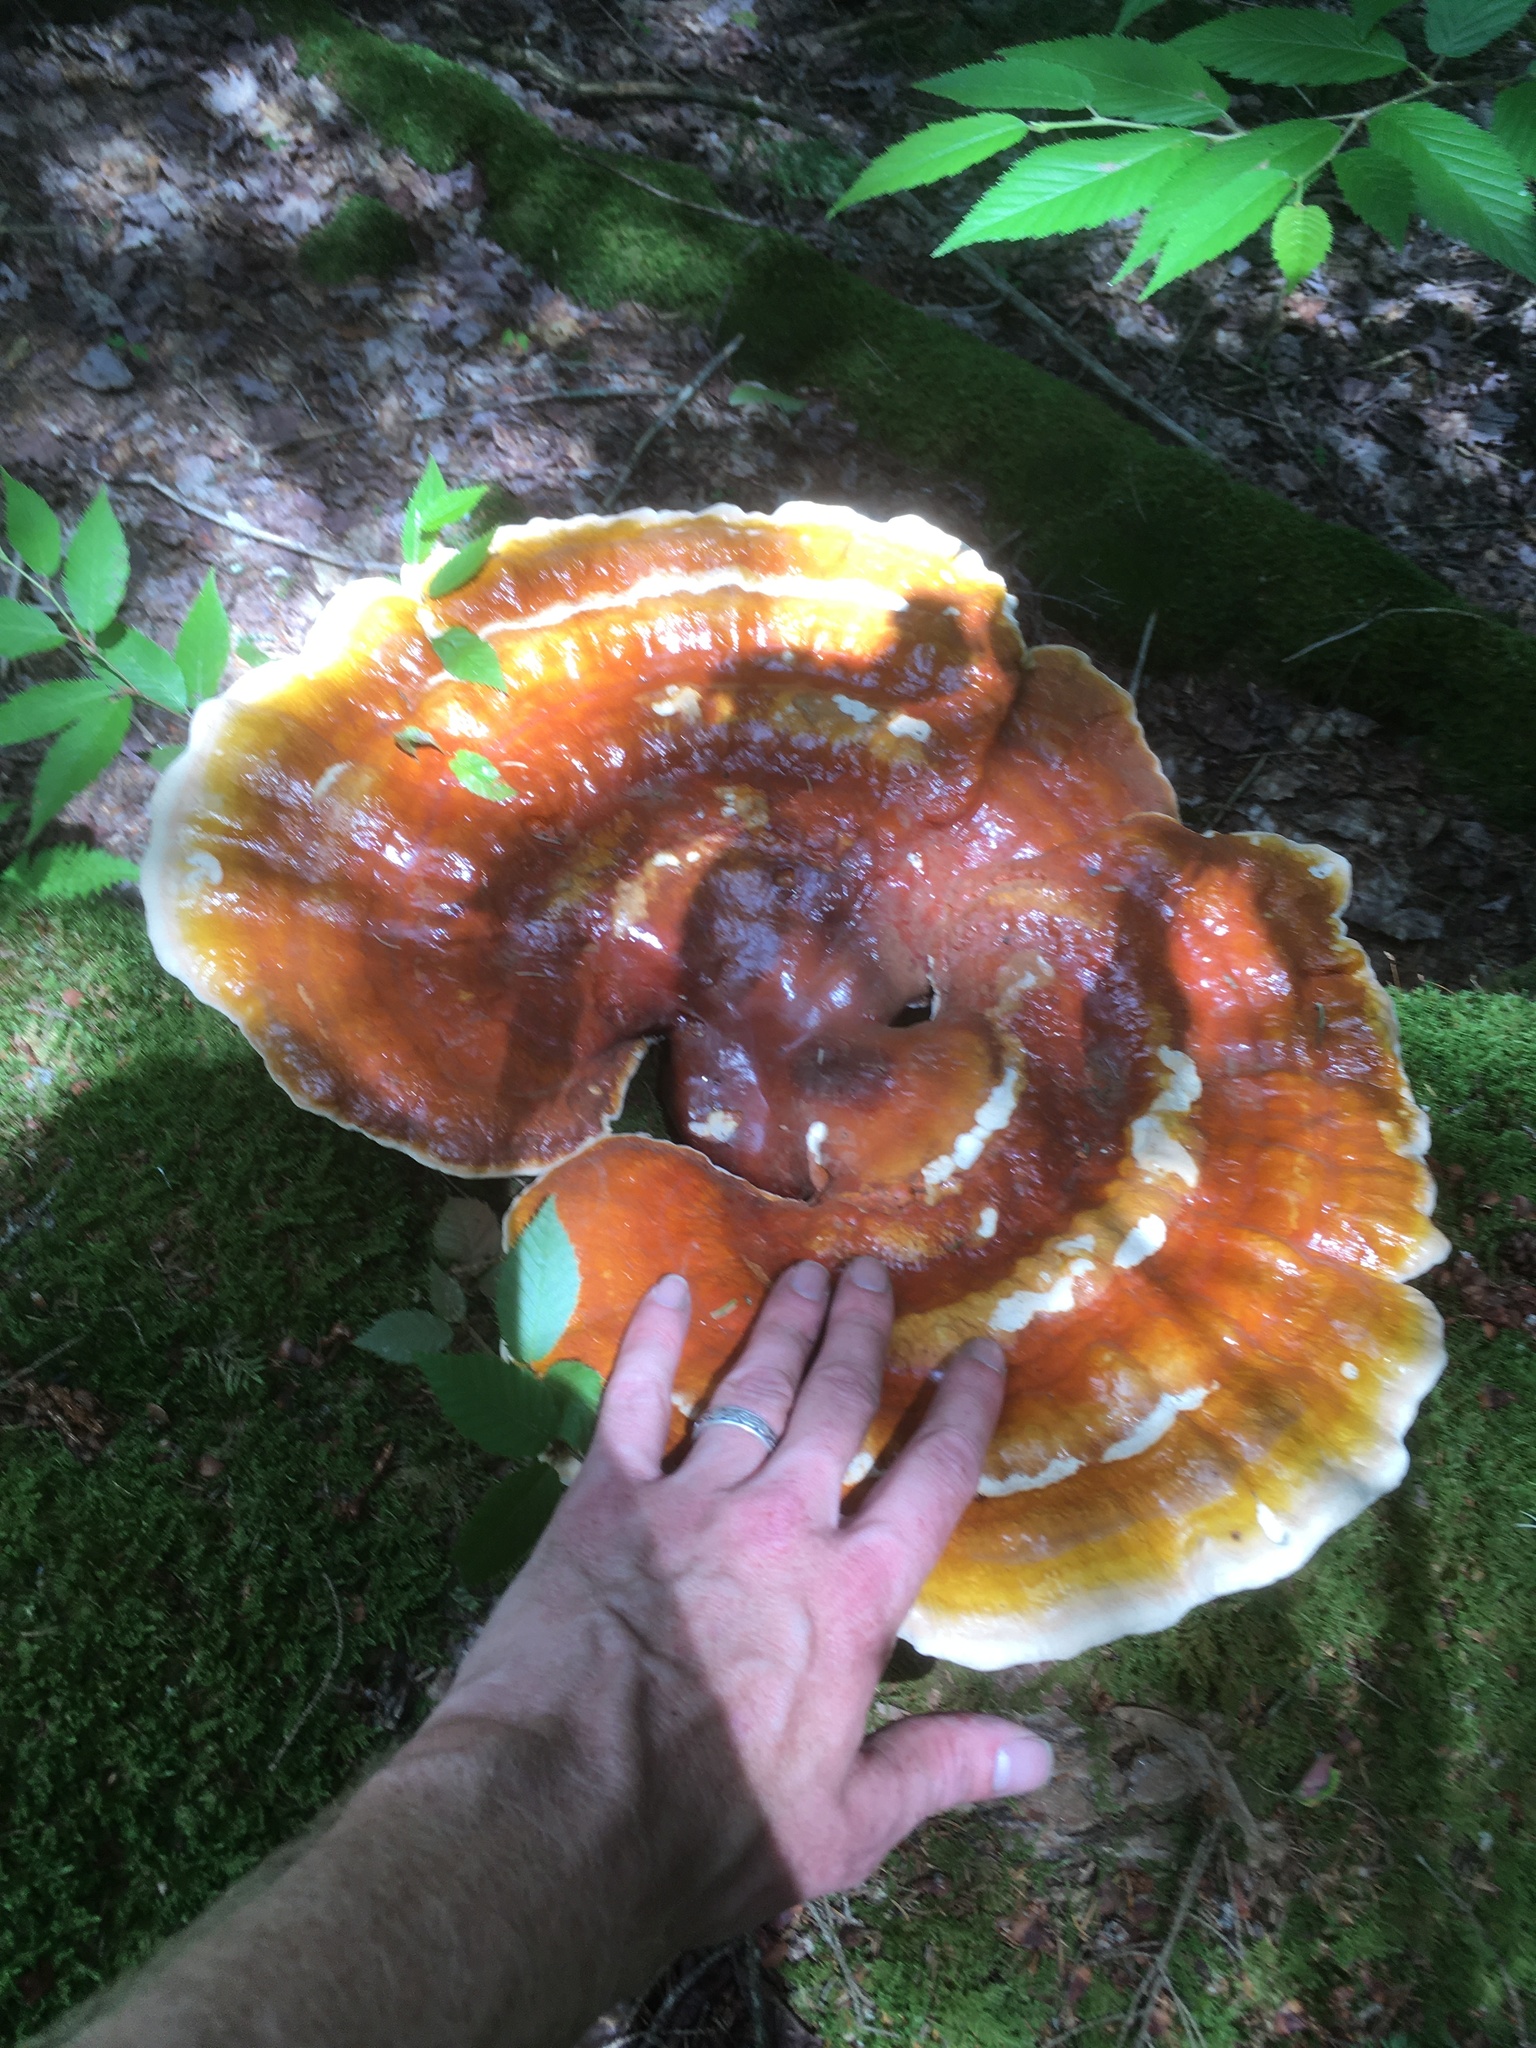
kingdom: Fungi
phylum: Basidiomycota
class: Agaricomycetes
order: Polyporales
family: Polyporaceae
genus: Ganoderma
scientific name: Ganoderma tsugae
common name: Hemlock varnish shelf
